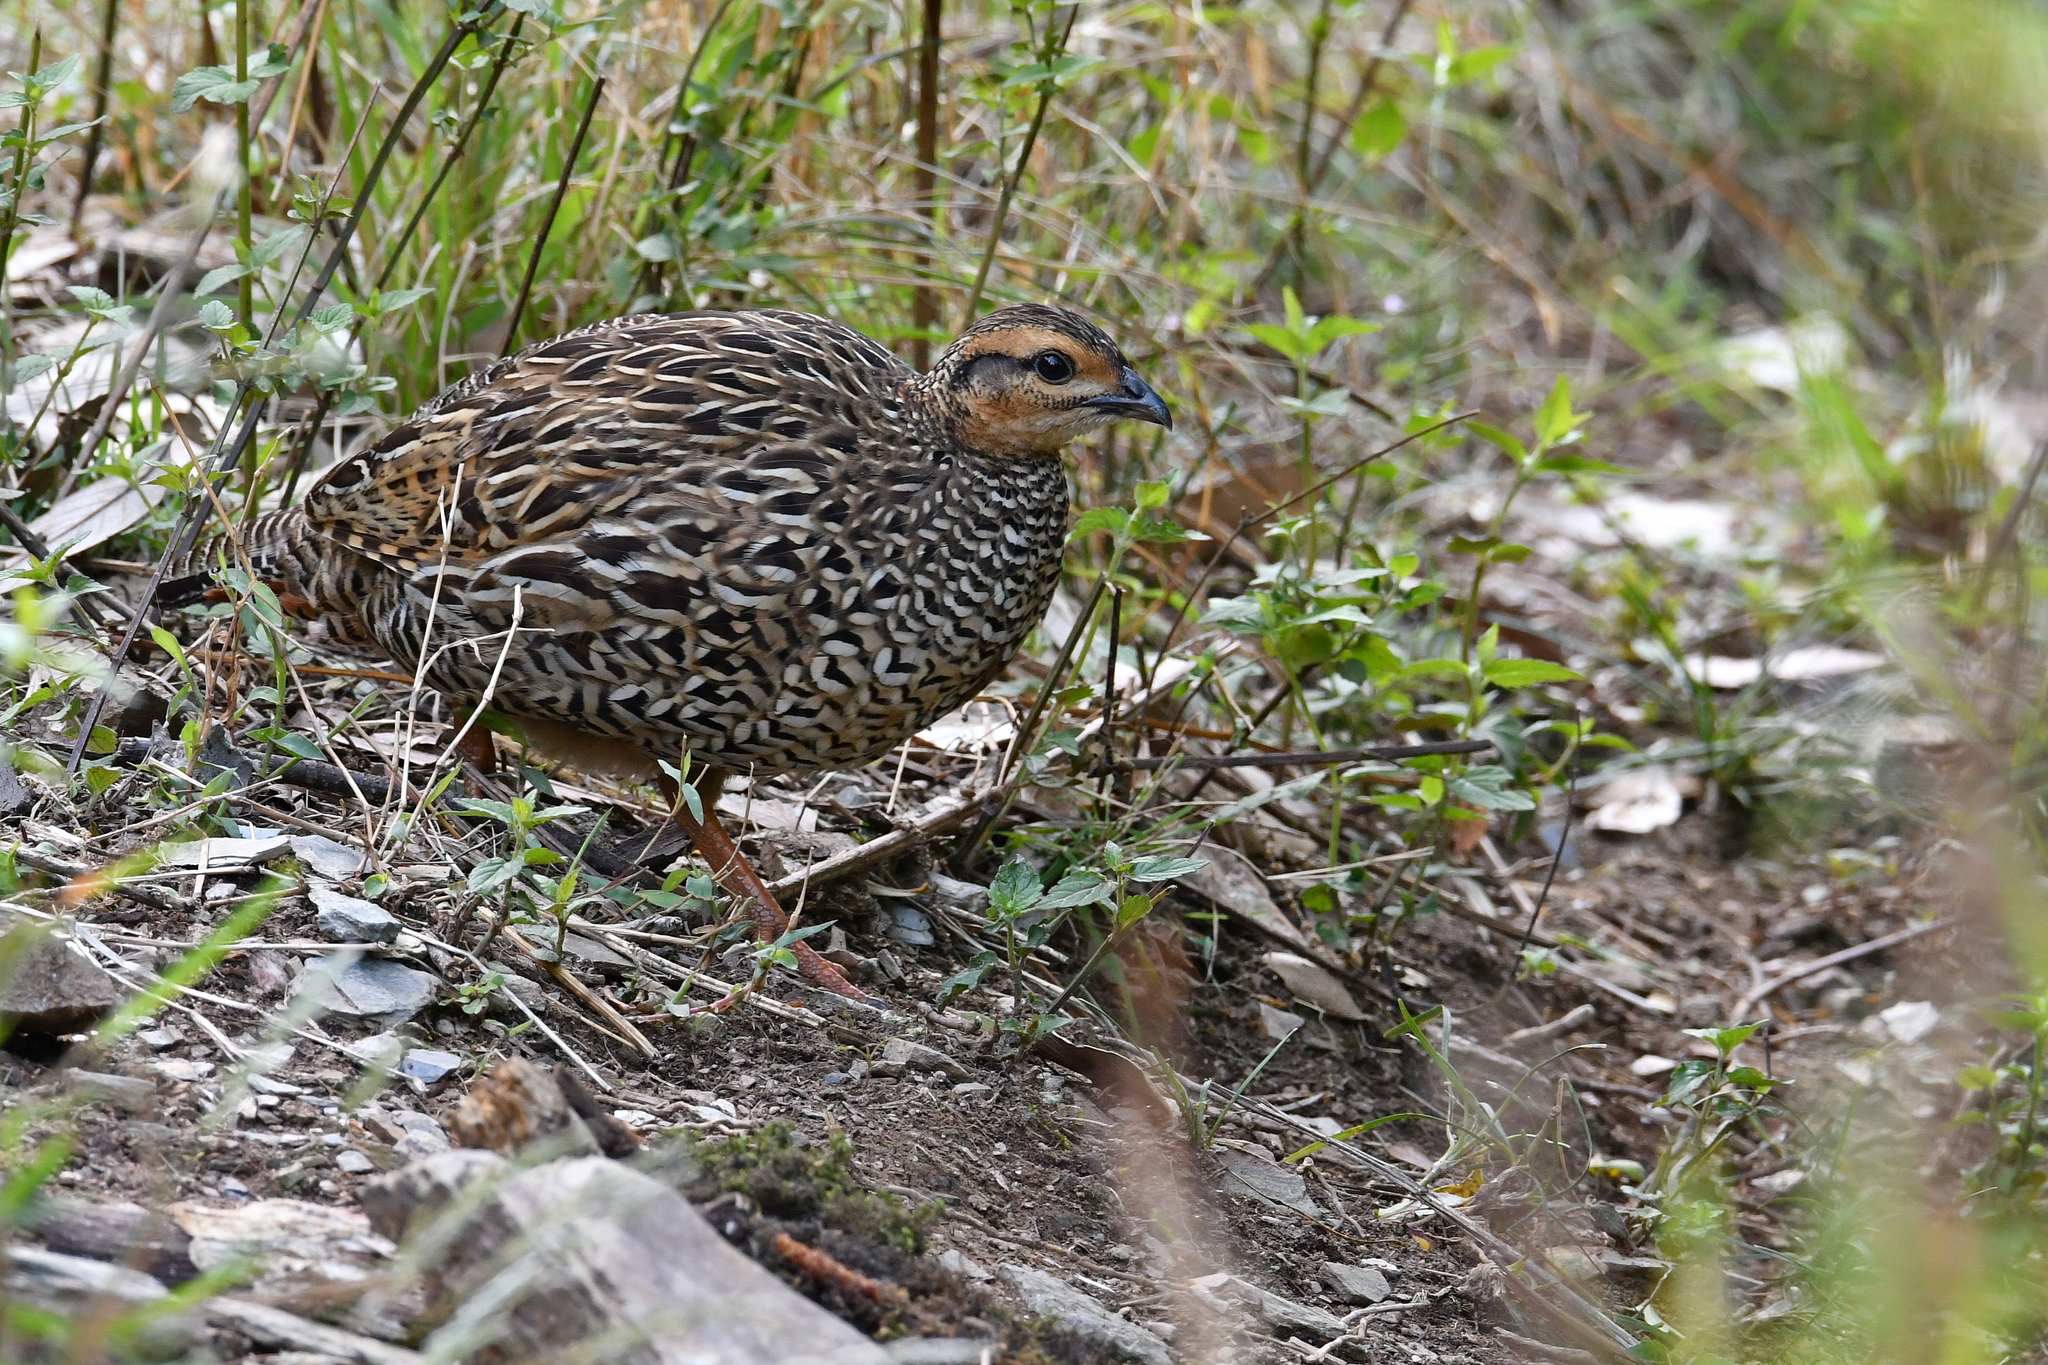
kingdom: Animalia
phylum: Chordata
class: Aves
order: Galliformes
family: Phasianidae
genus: Francolinus
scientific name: Francolinus francolinus
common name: Black francolin
